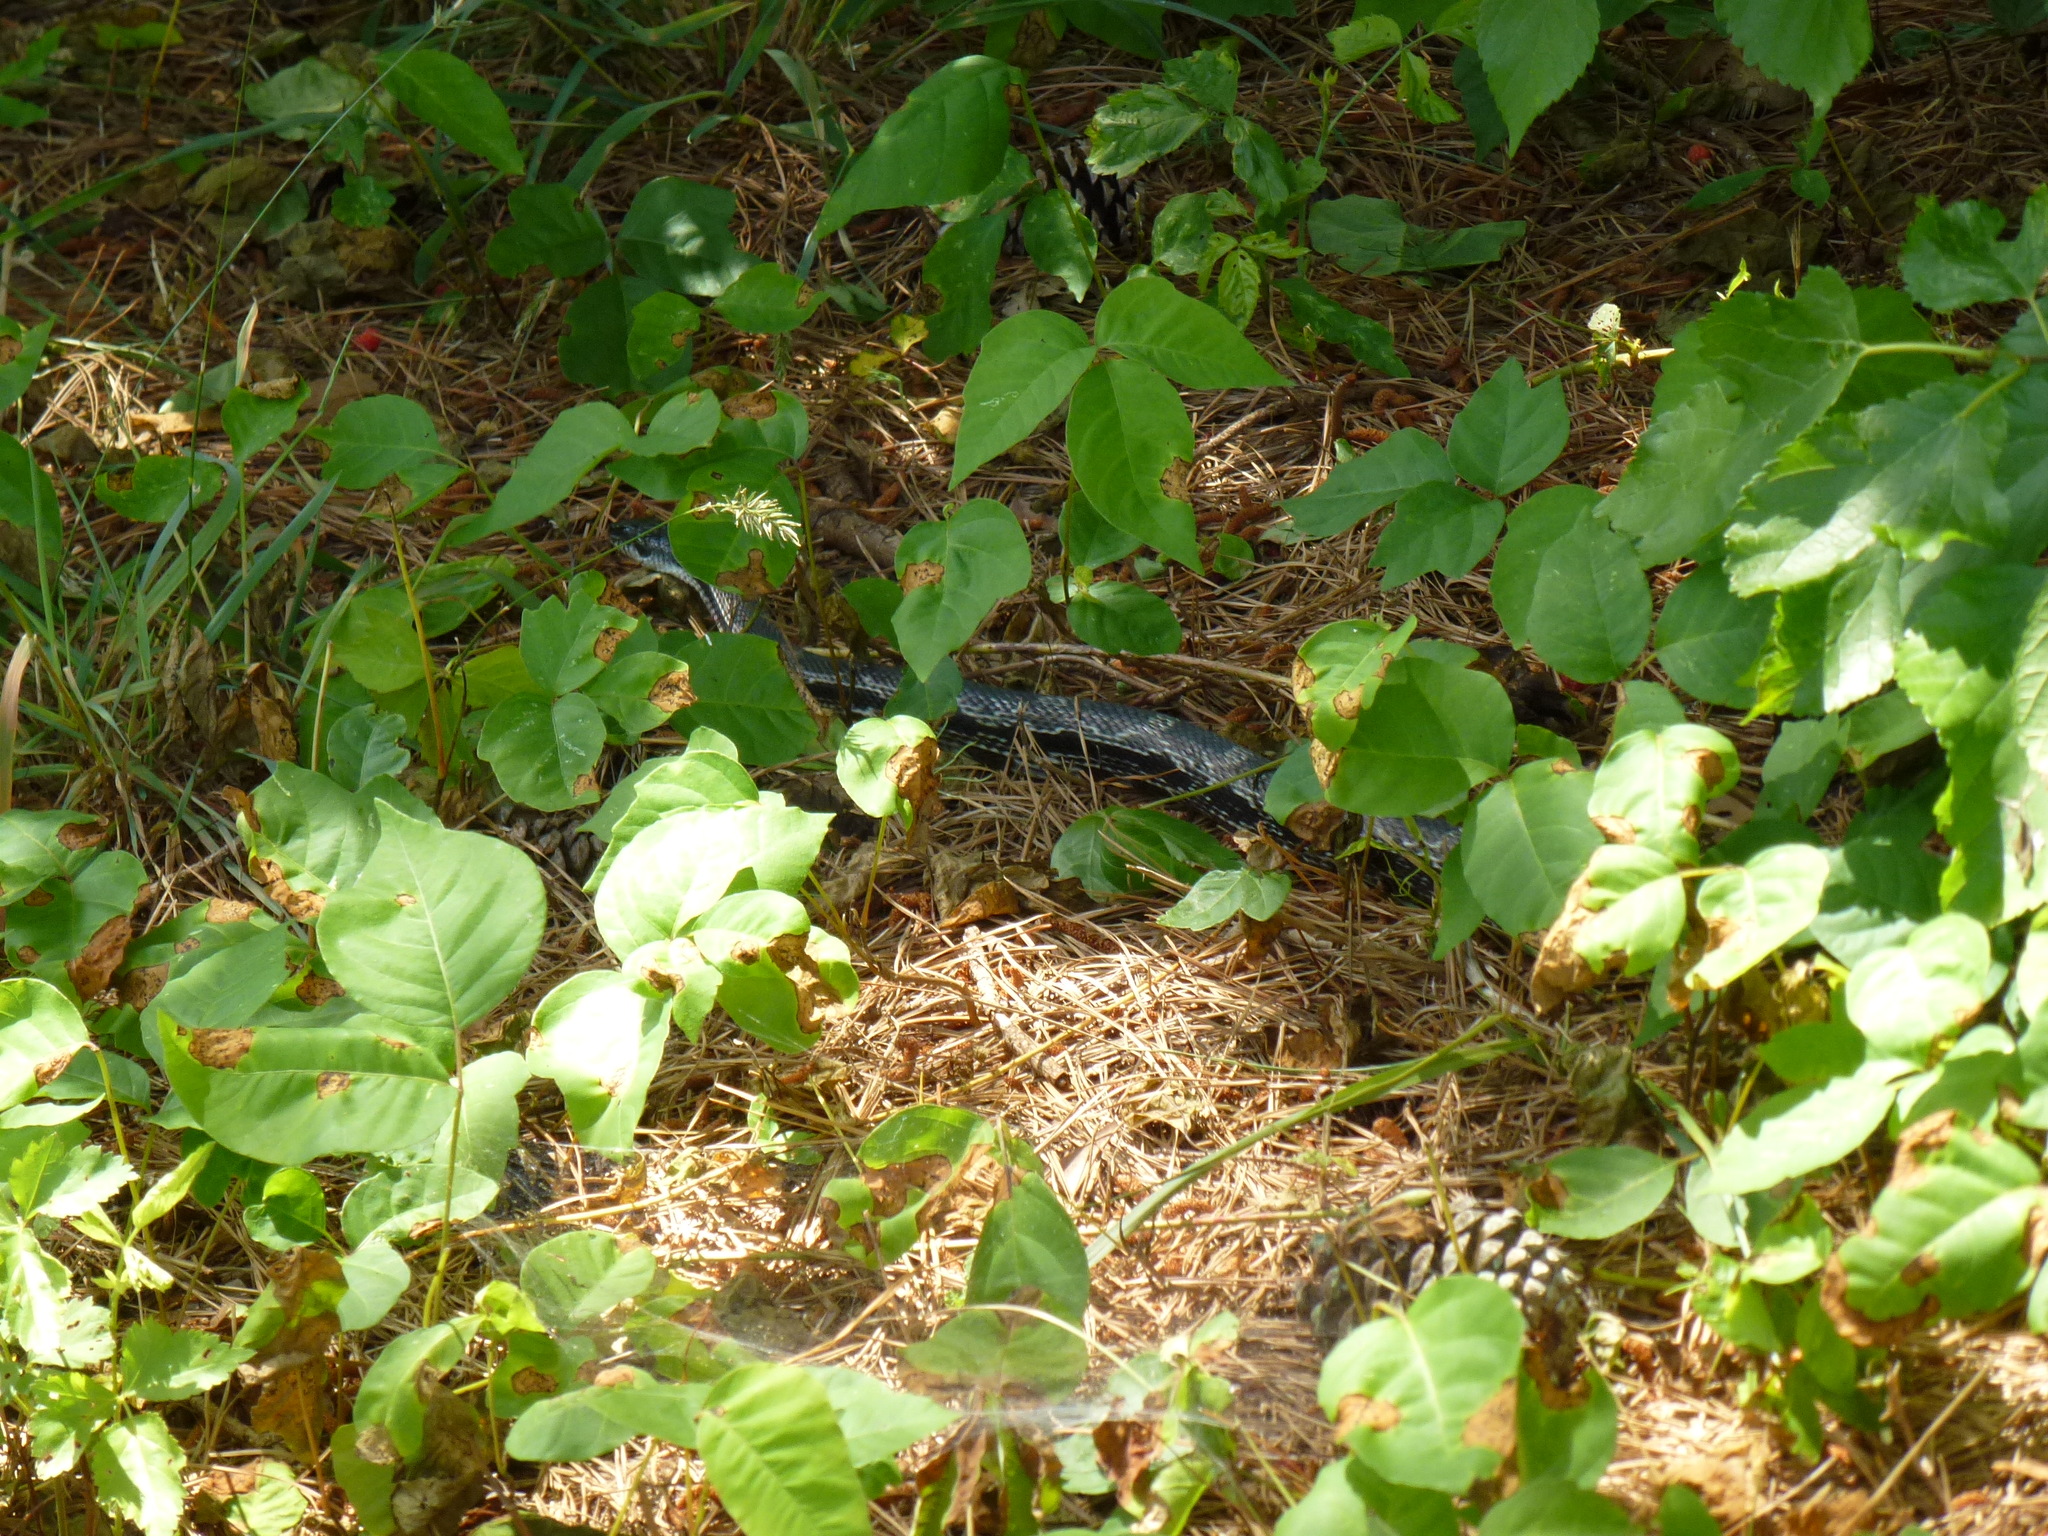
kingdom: Animalia
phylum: Chordata
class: Squamata
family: Colubridae
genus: Pantherophis
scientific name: Pantherophis spiloides
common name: Gray rat snake
